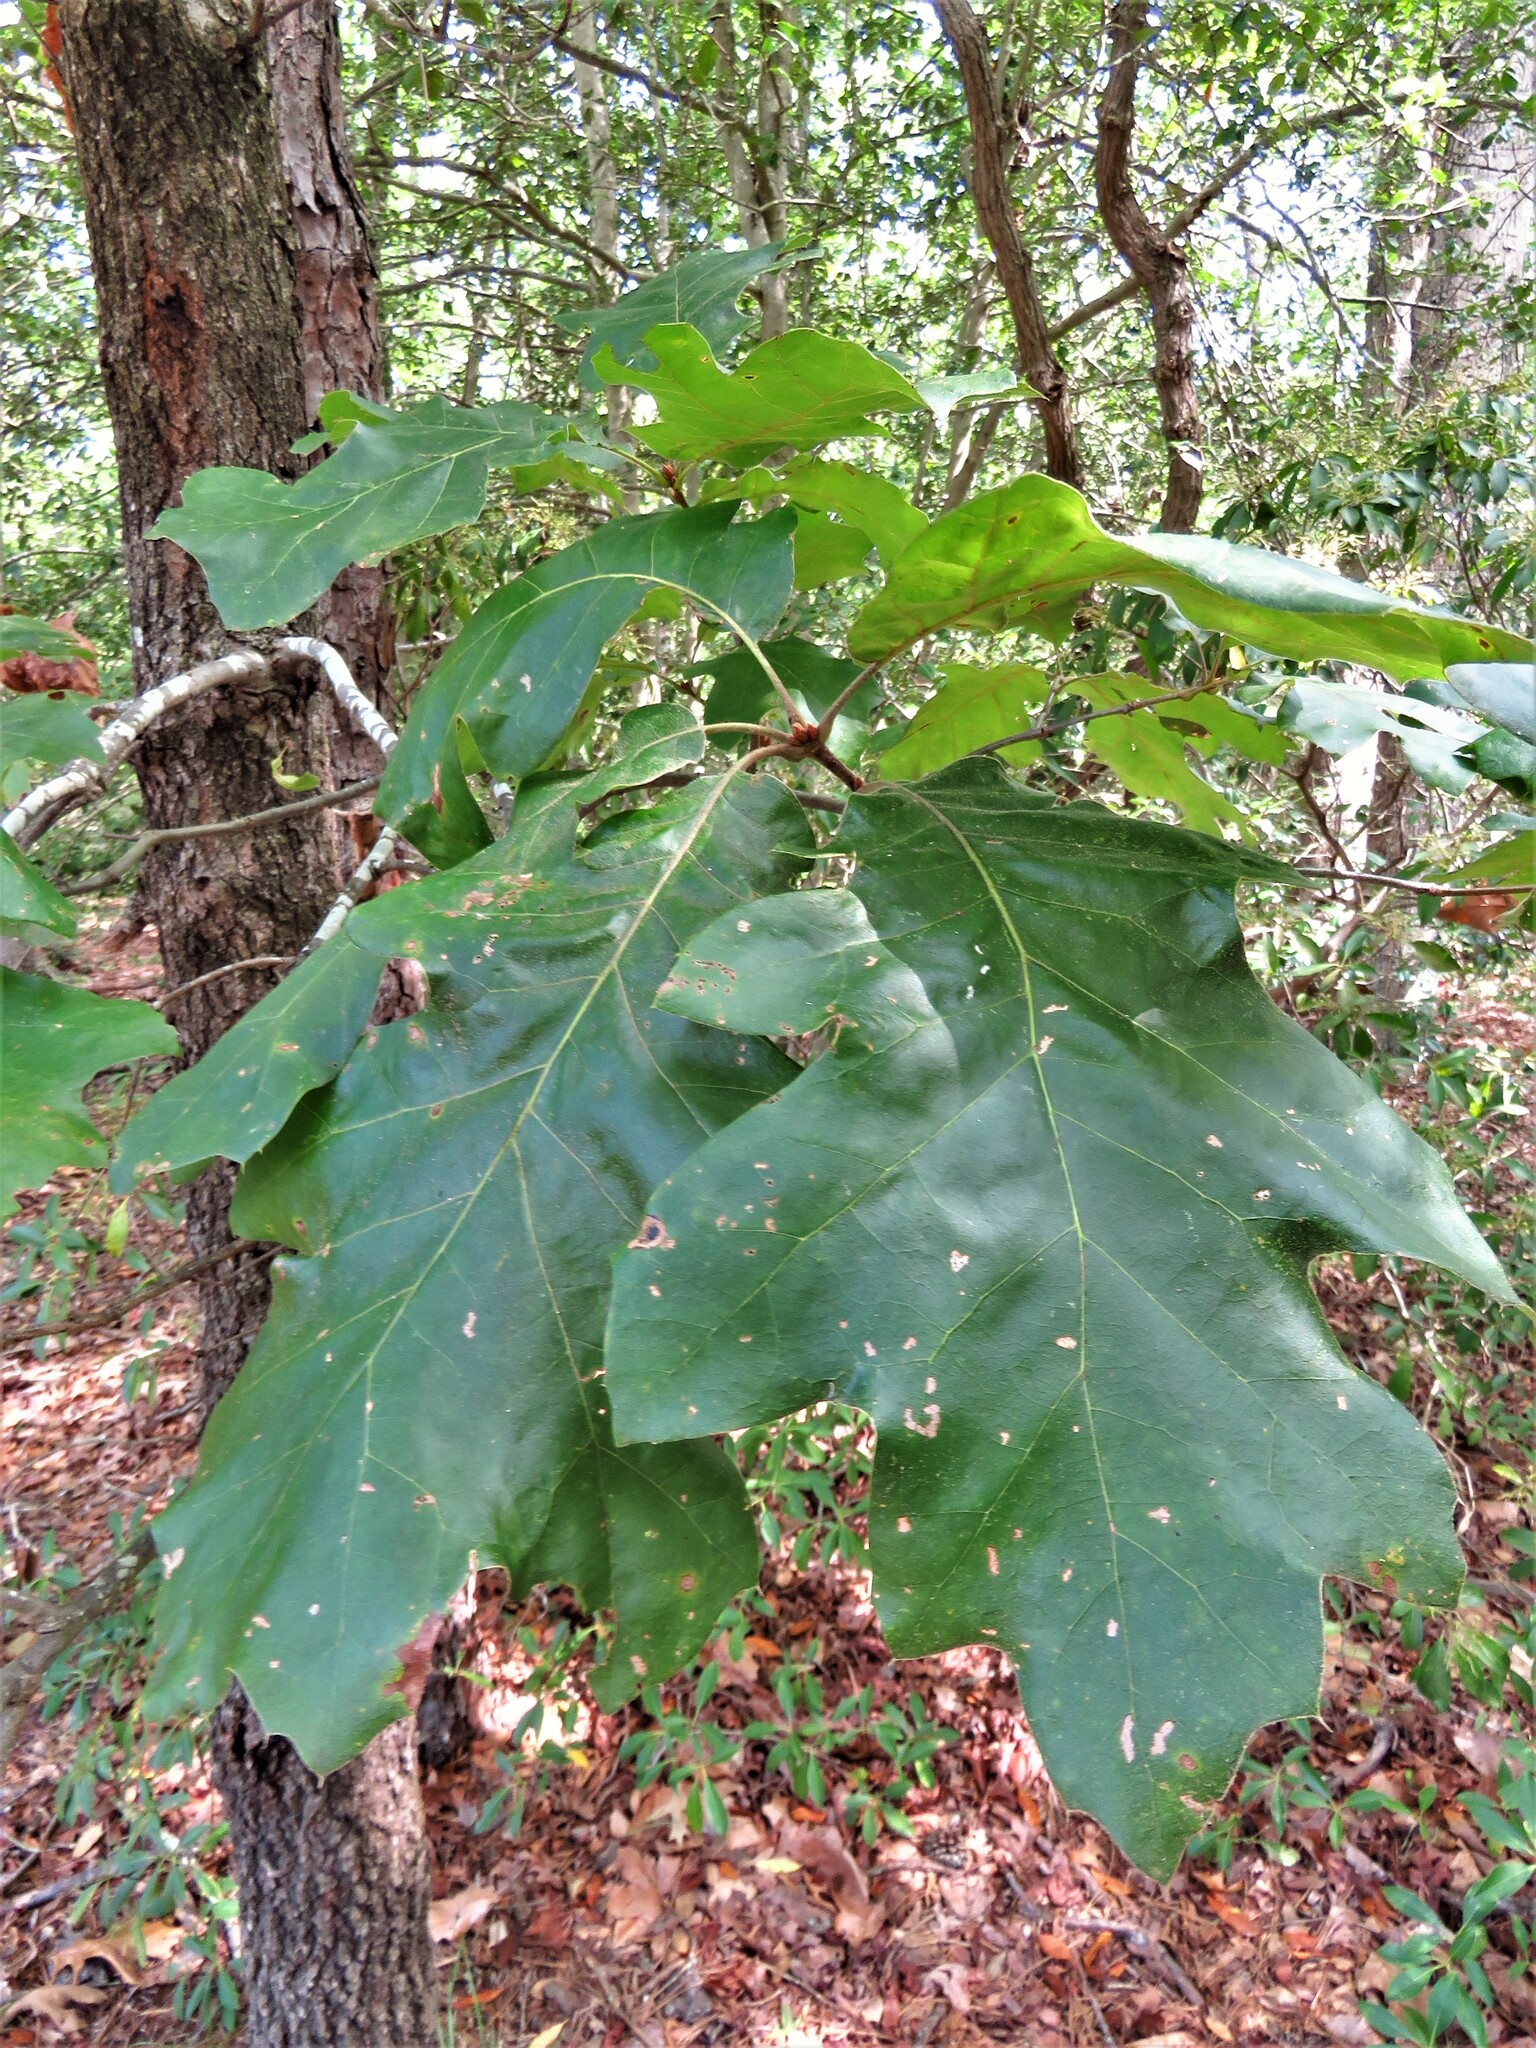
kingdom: Plantae
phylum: Tracheophyta
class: Magnoliopsida
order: Fagales
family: Fagaceae
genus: Quercus
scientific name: Quercus velutina
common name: Black oak
